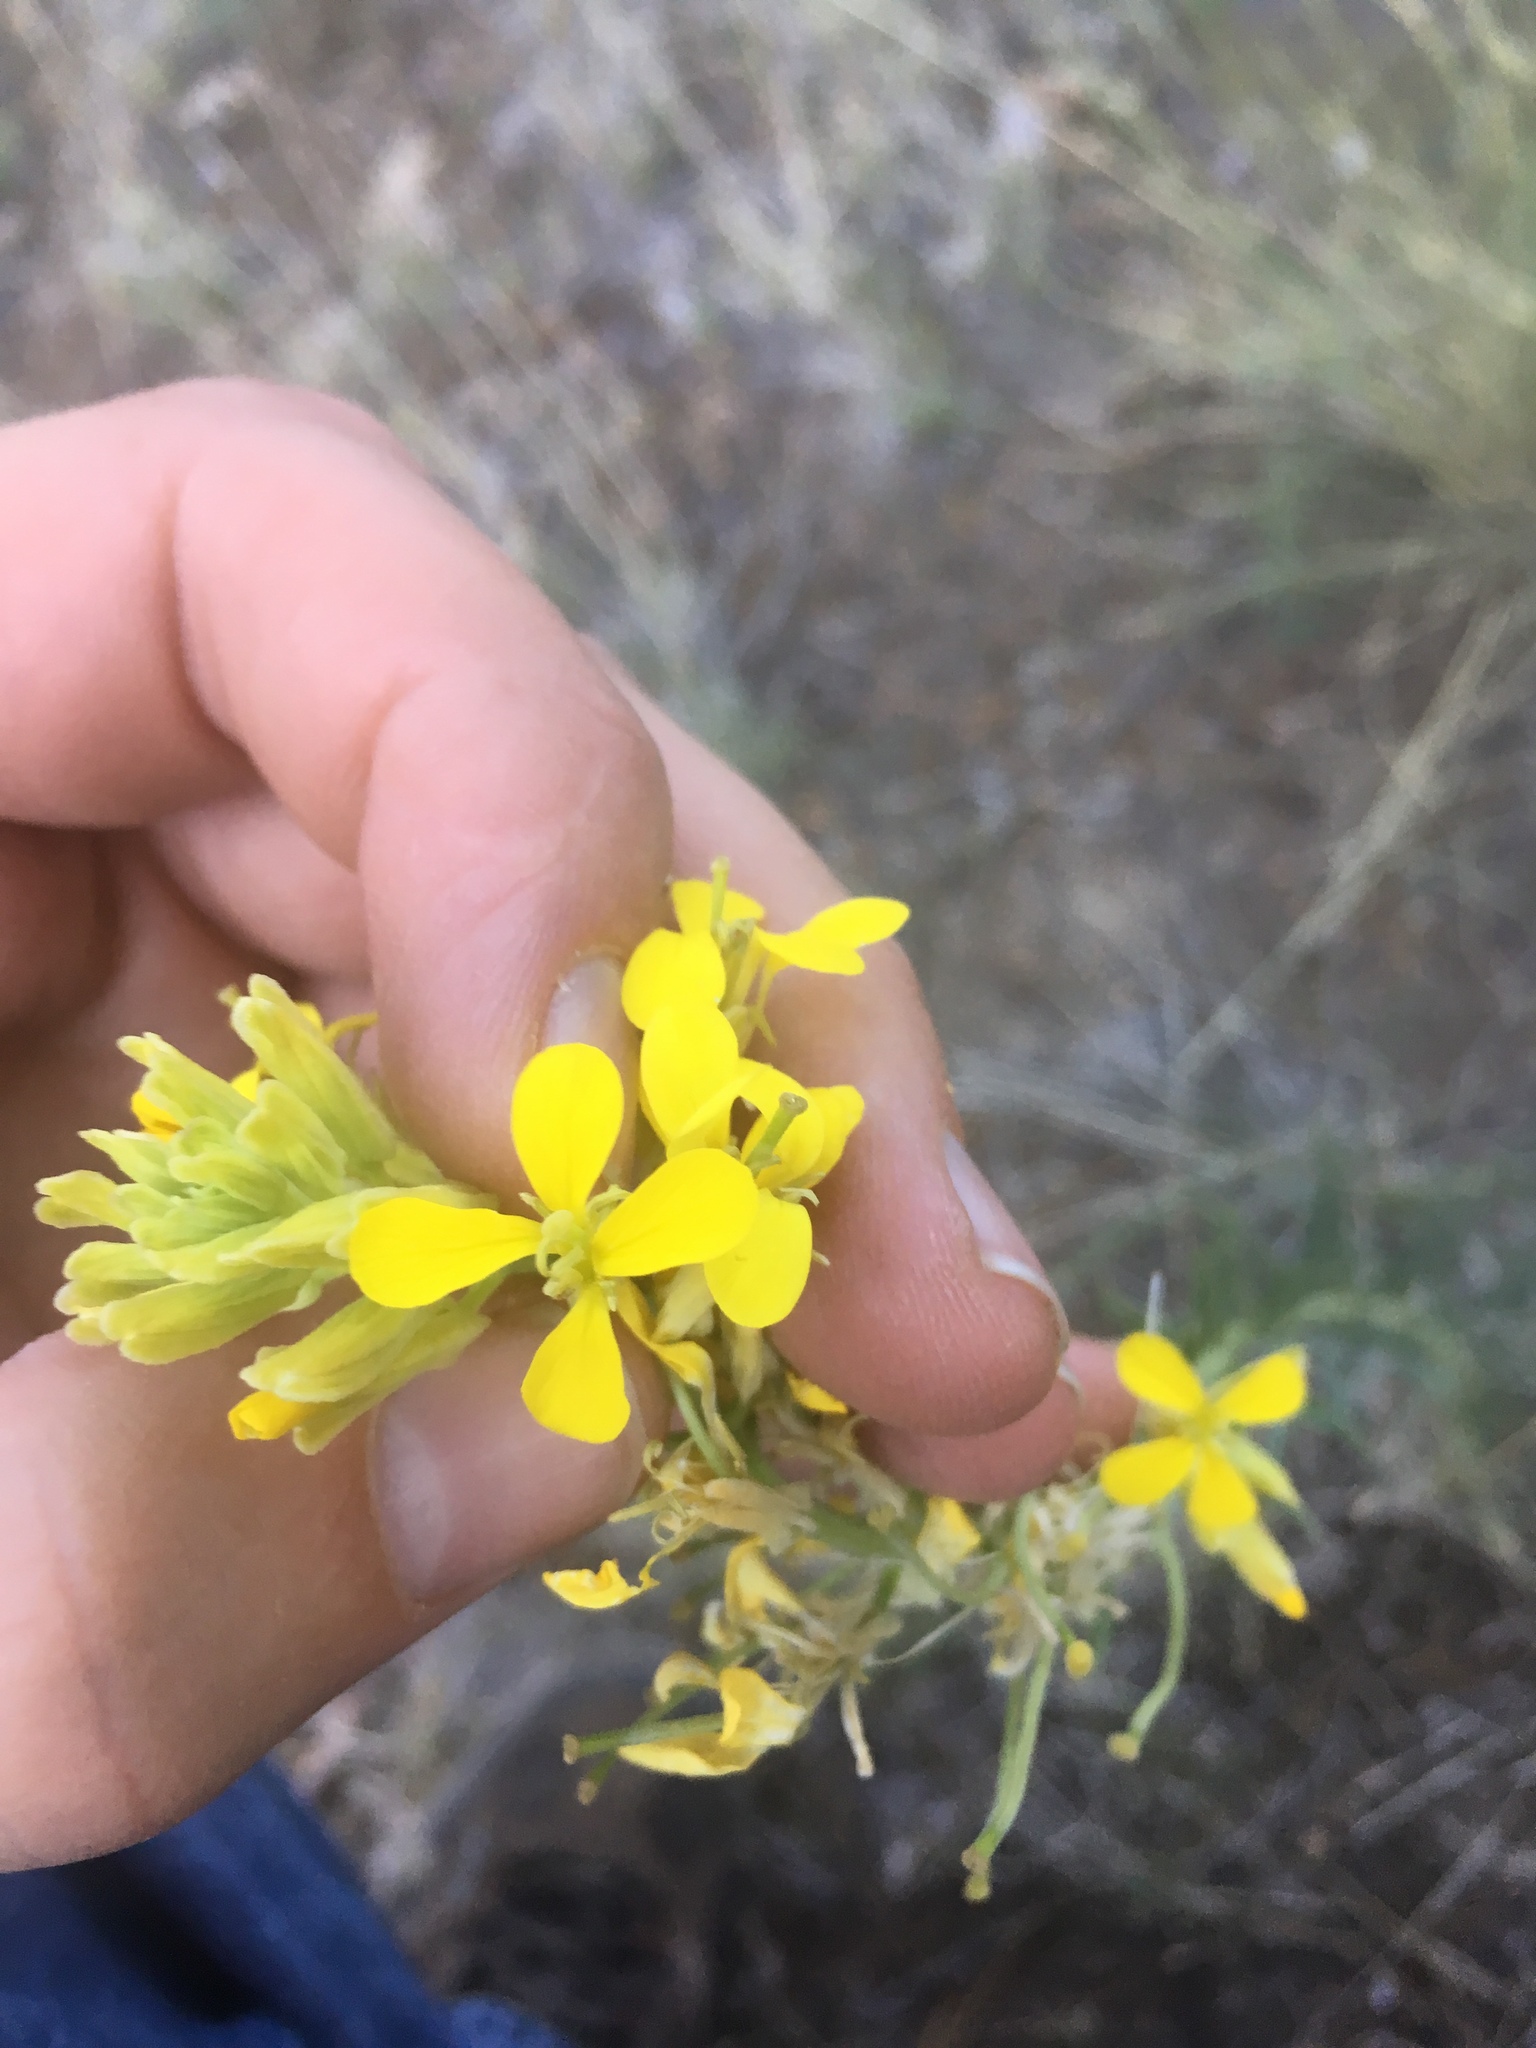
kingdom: Plantae
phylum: Tracheophyta
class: Magnoliopsida
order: Brassicales
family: Brassicaceae
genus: Erysimum
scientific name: Erysimum capitatum
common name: Western wallflower
